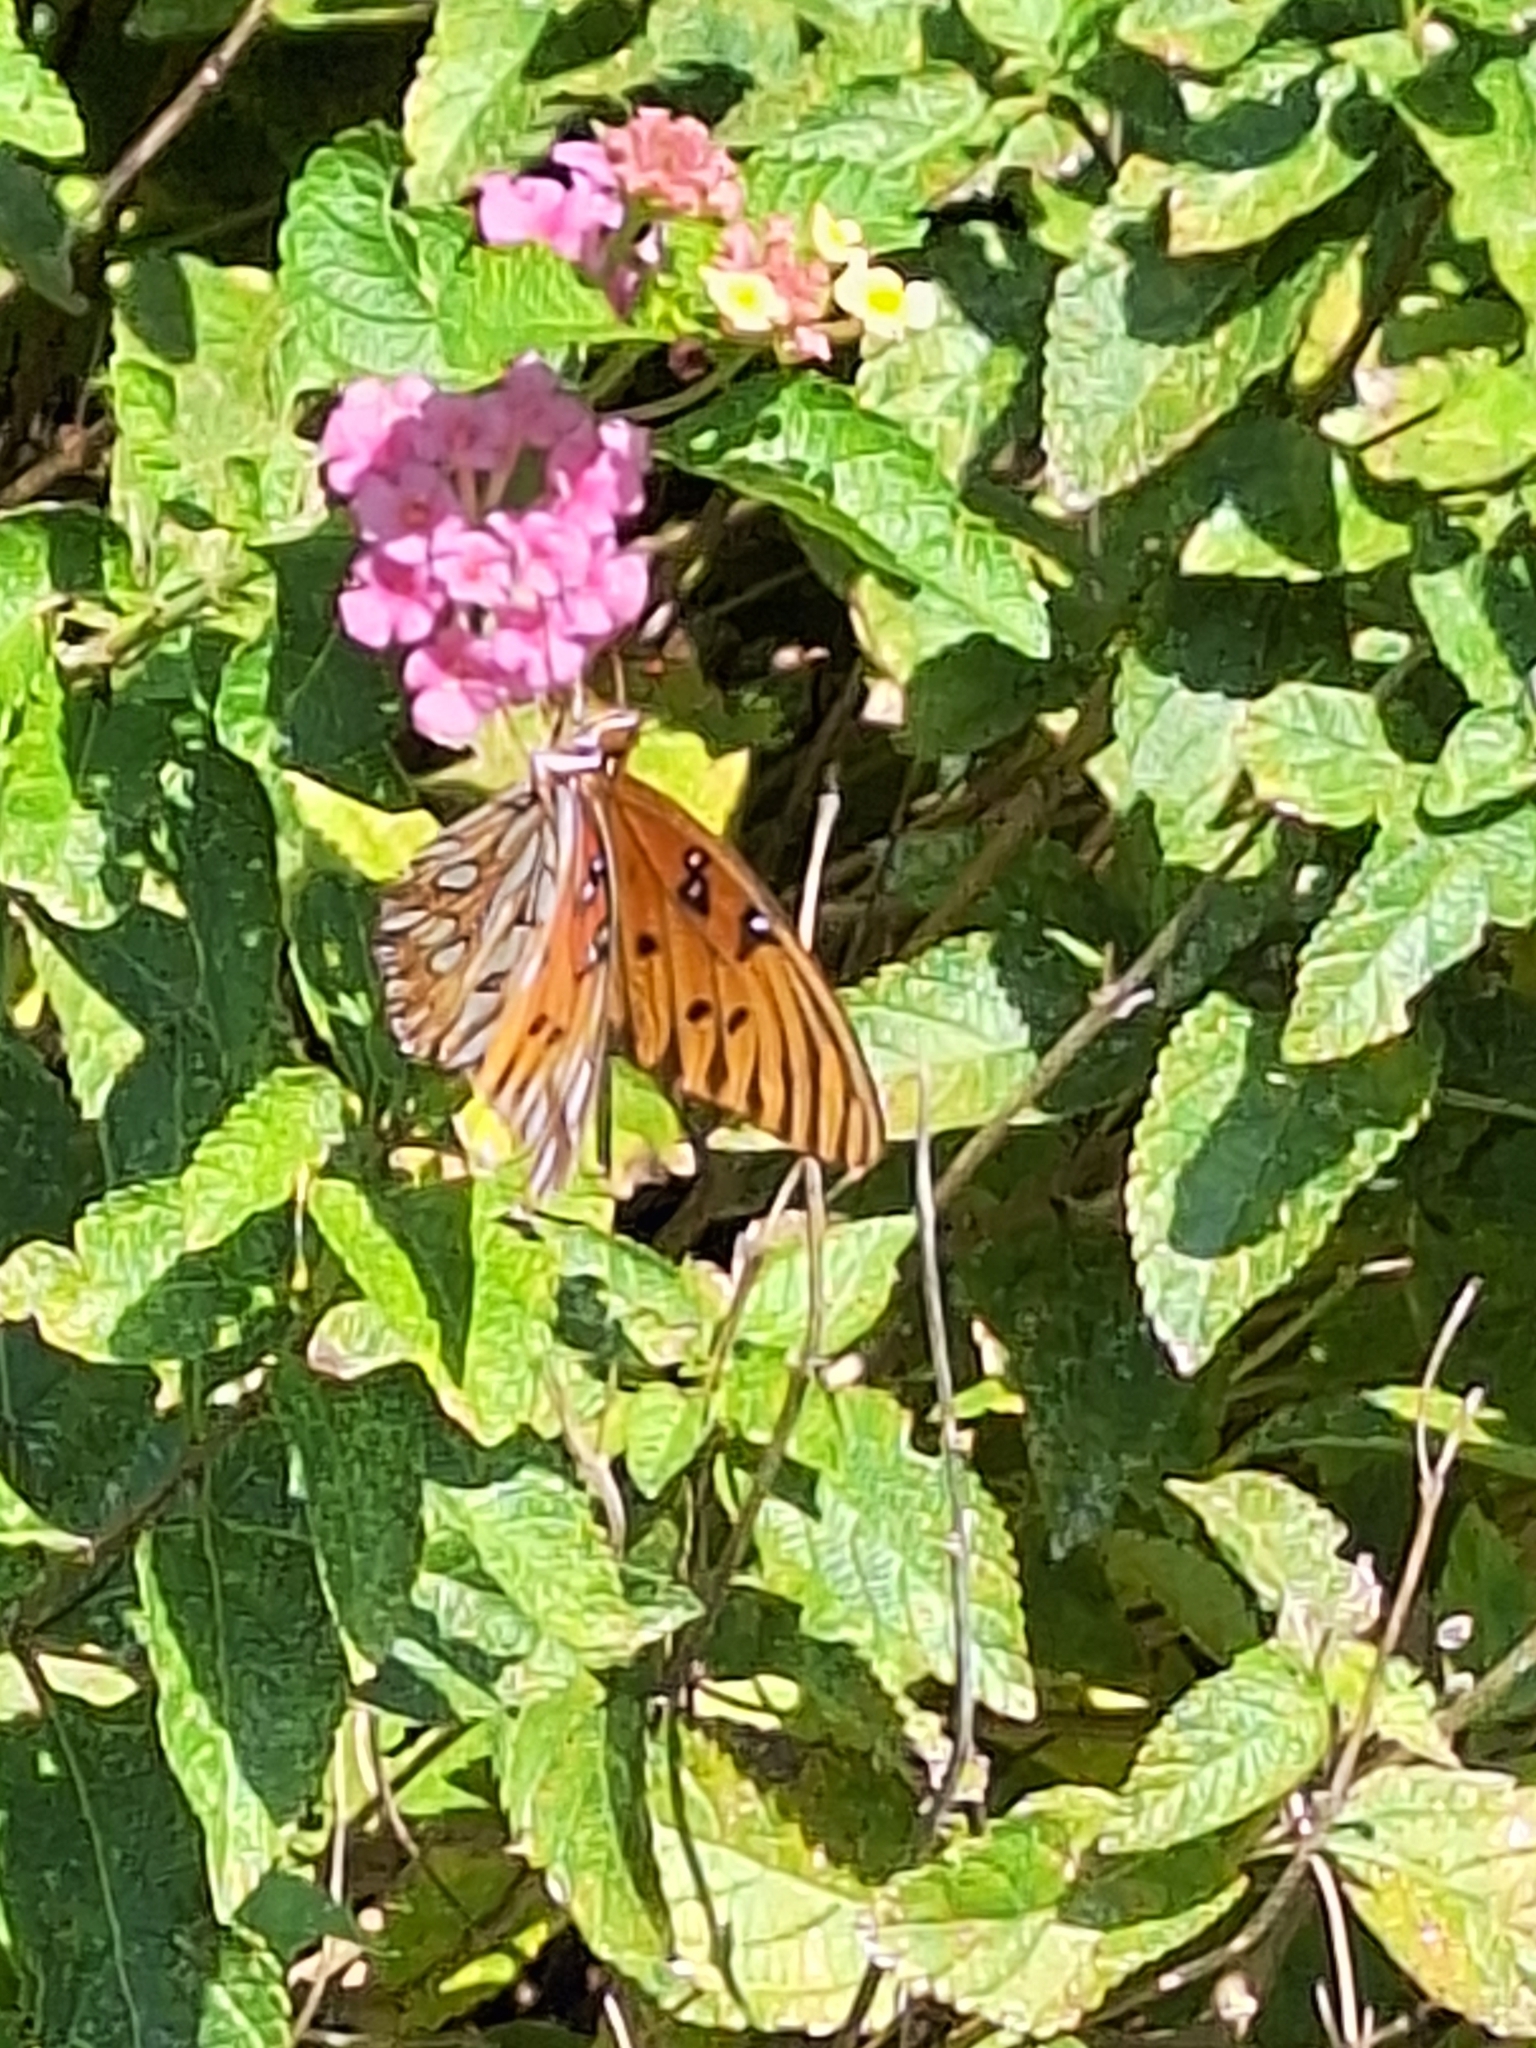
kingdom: Animalia
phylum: Arthropoda
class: Insecta
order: Lepidoptera
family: Nymphalidae
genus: Dione
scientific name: Dione vanillae
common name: Gulf fritillary
